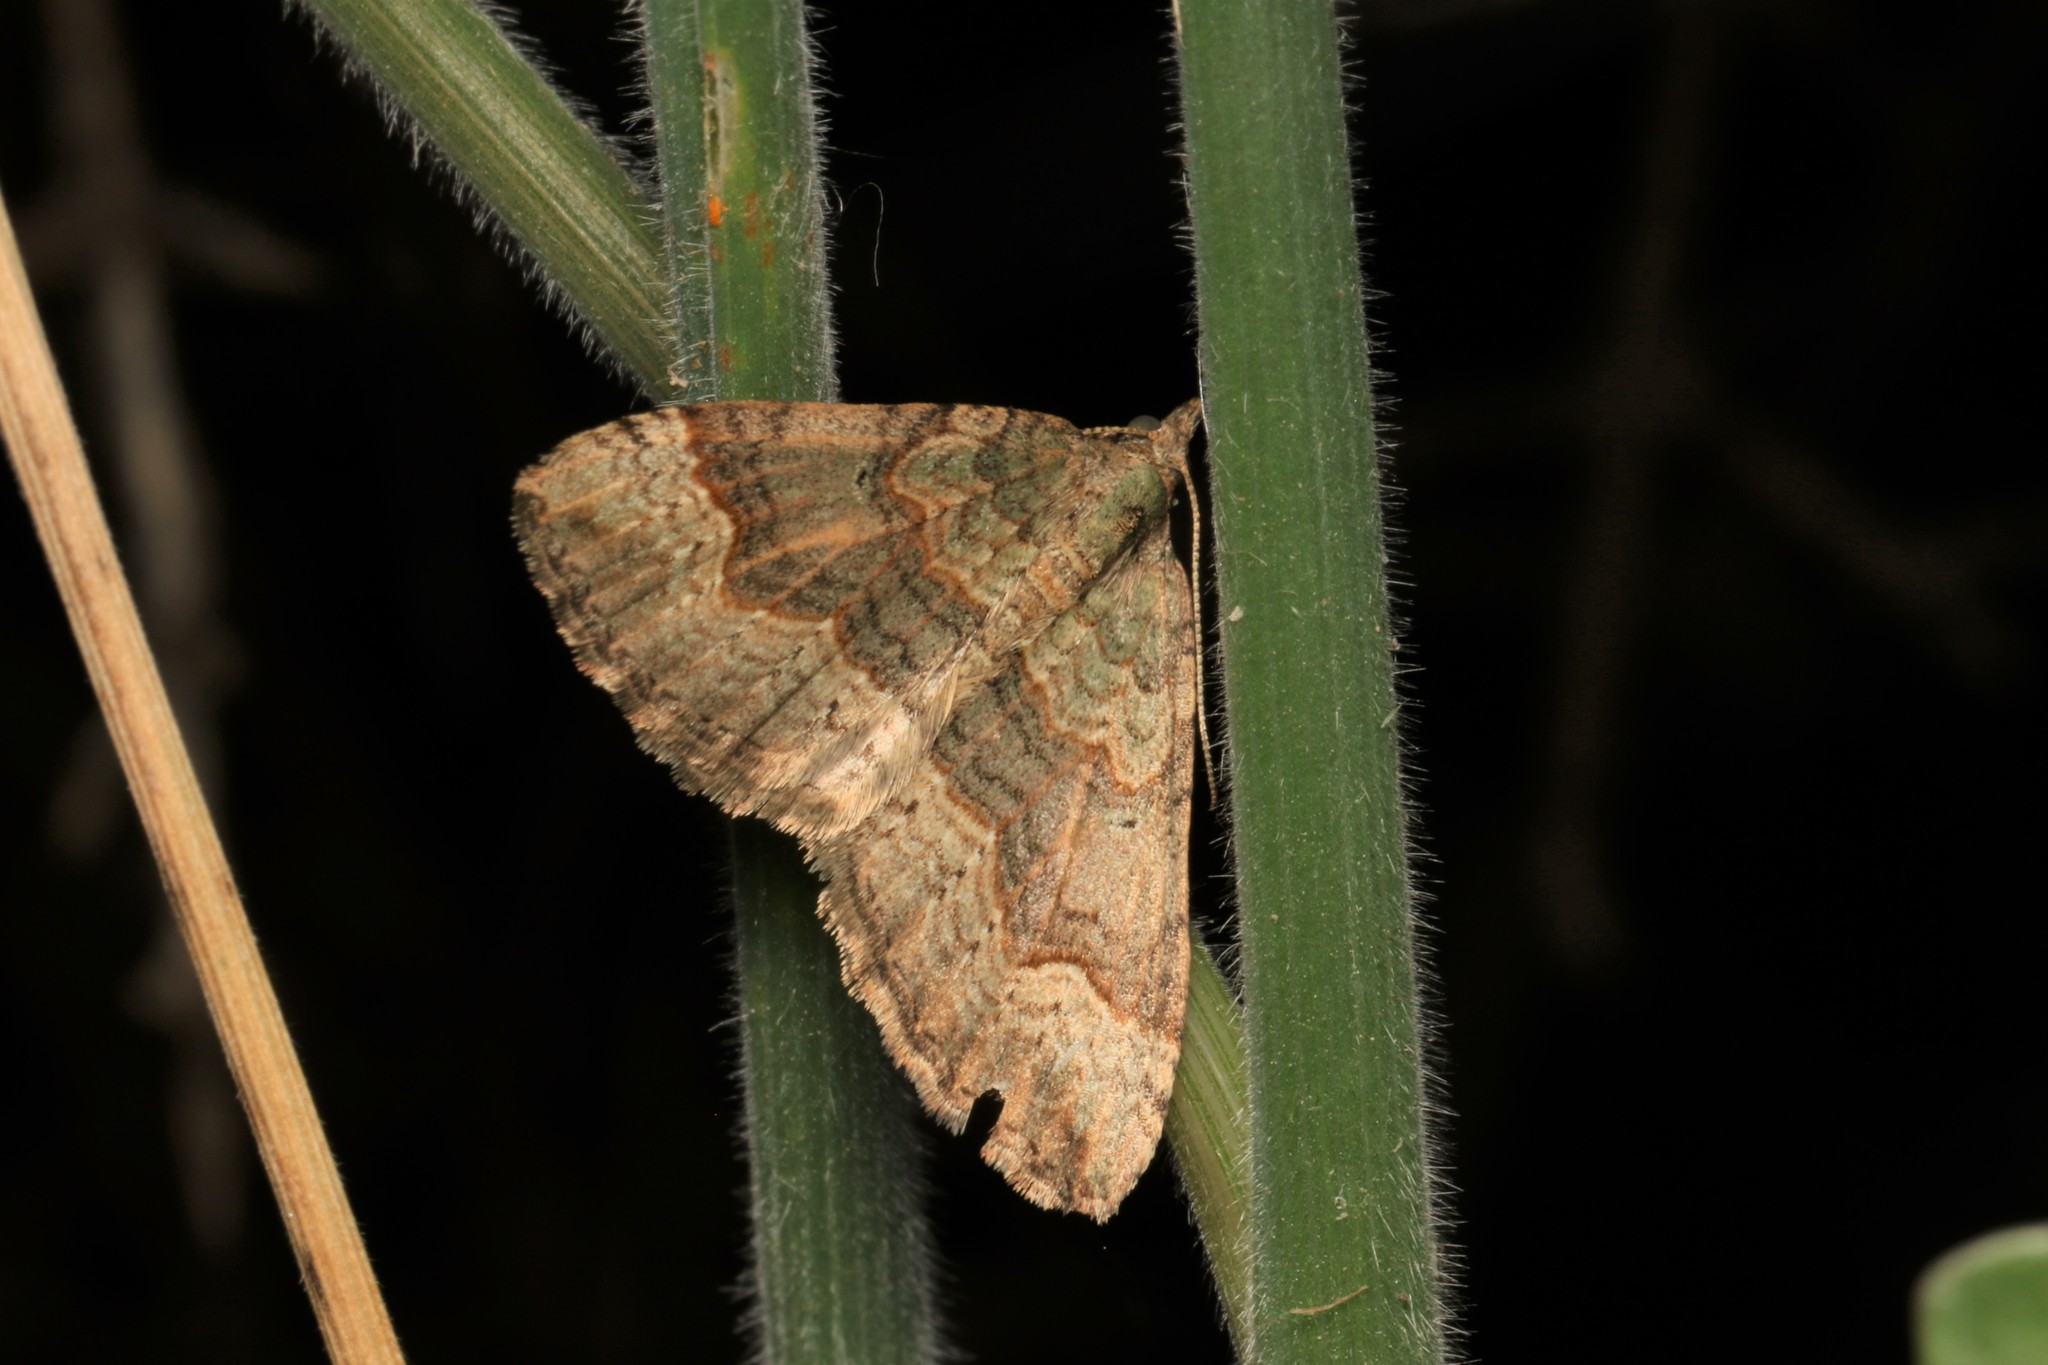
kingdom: Animalia
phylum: Arthropoda
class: Insecta
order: Lepidoptera
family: Geometridae
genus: Epyaxa
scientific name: Epyaxa rosearia
